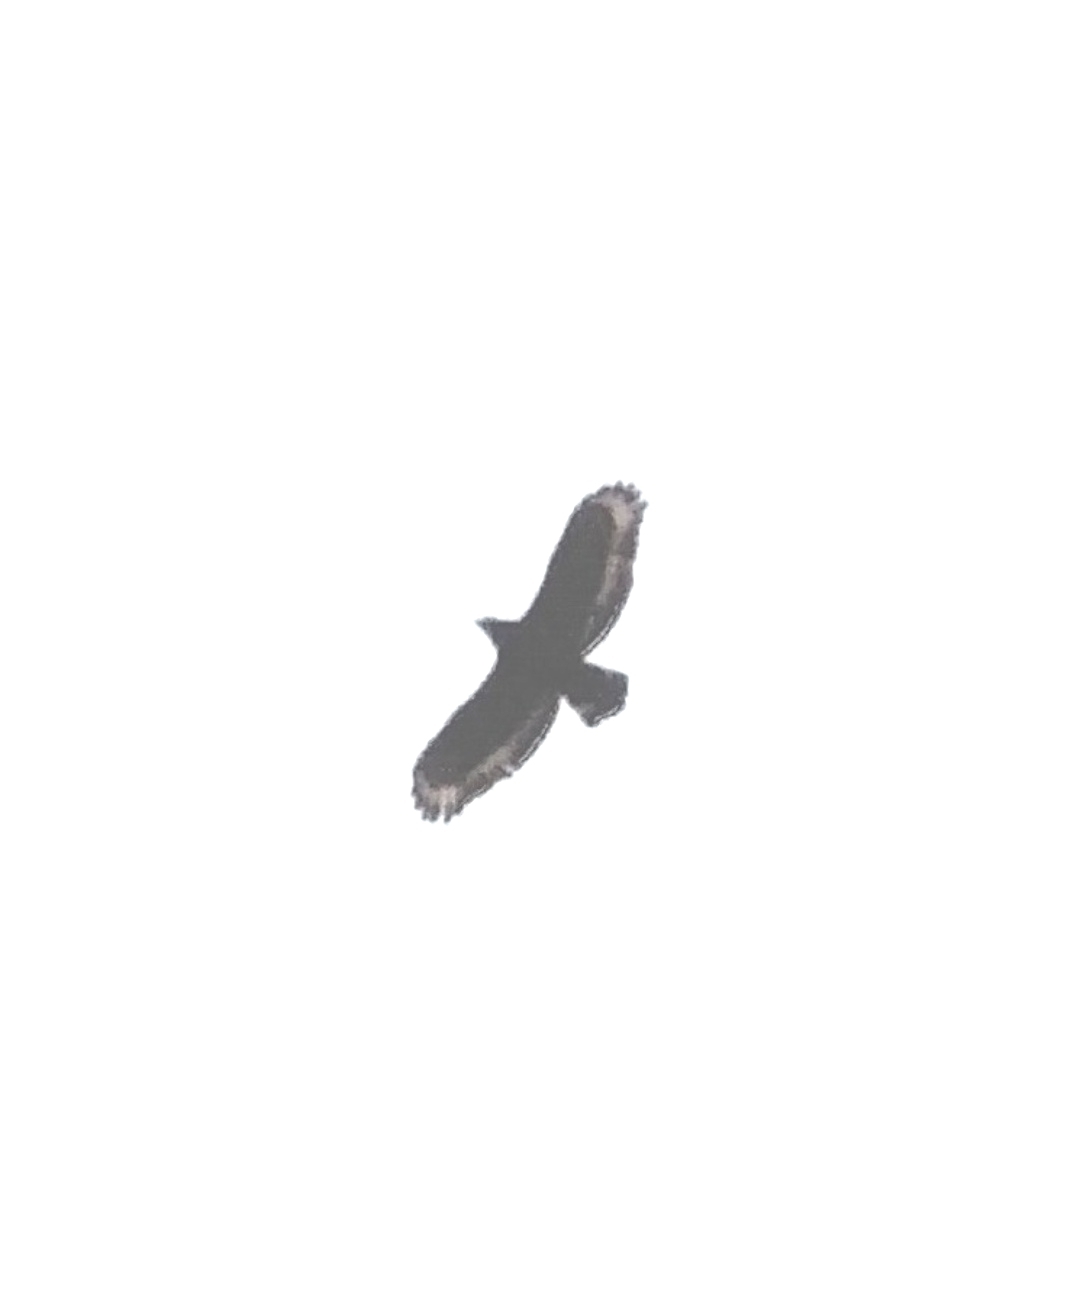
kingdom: Animalia
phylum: Chordata
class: Aves
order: Accipitriformes
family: Accipitridae
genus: Spilornis
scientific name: Spilornis cheela
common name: Crested serpent eagle
